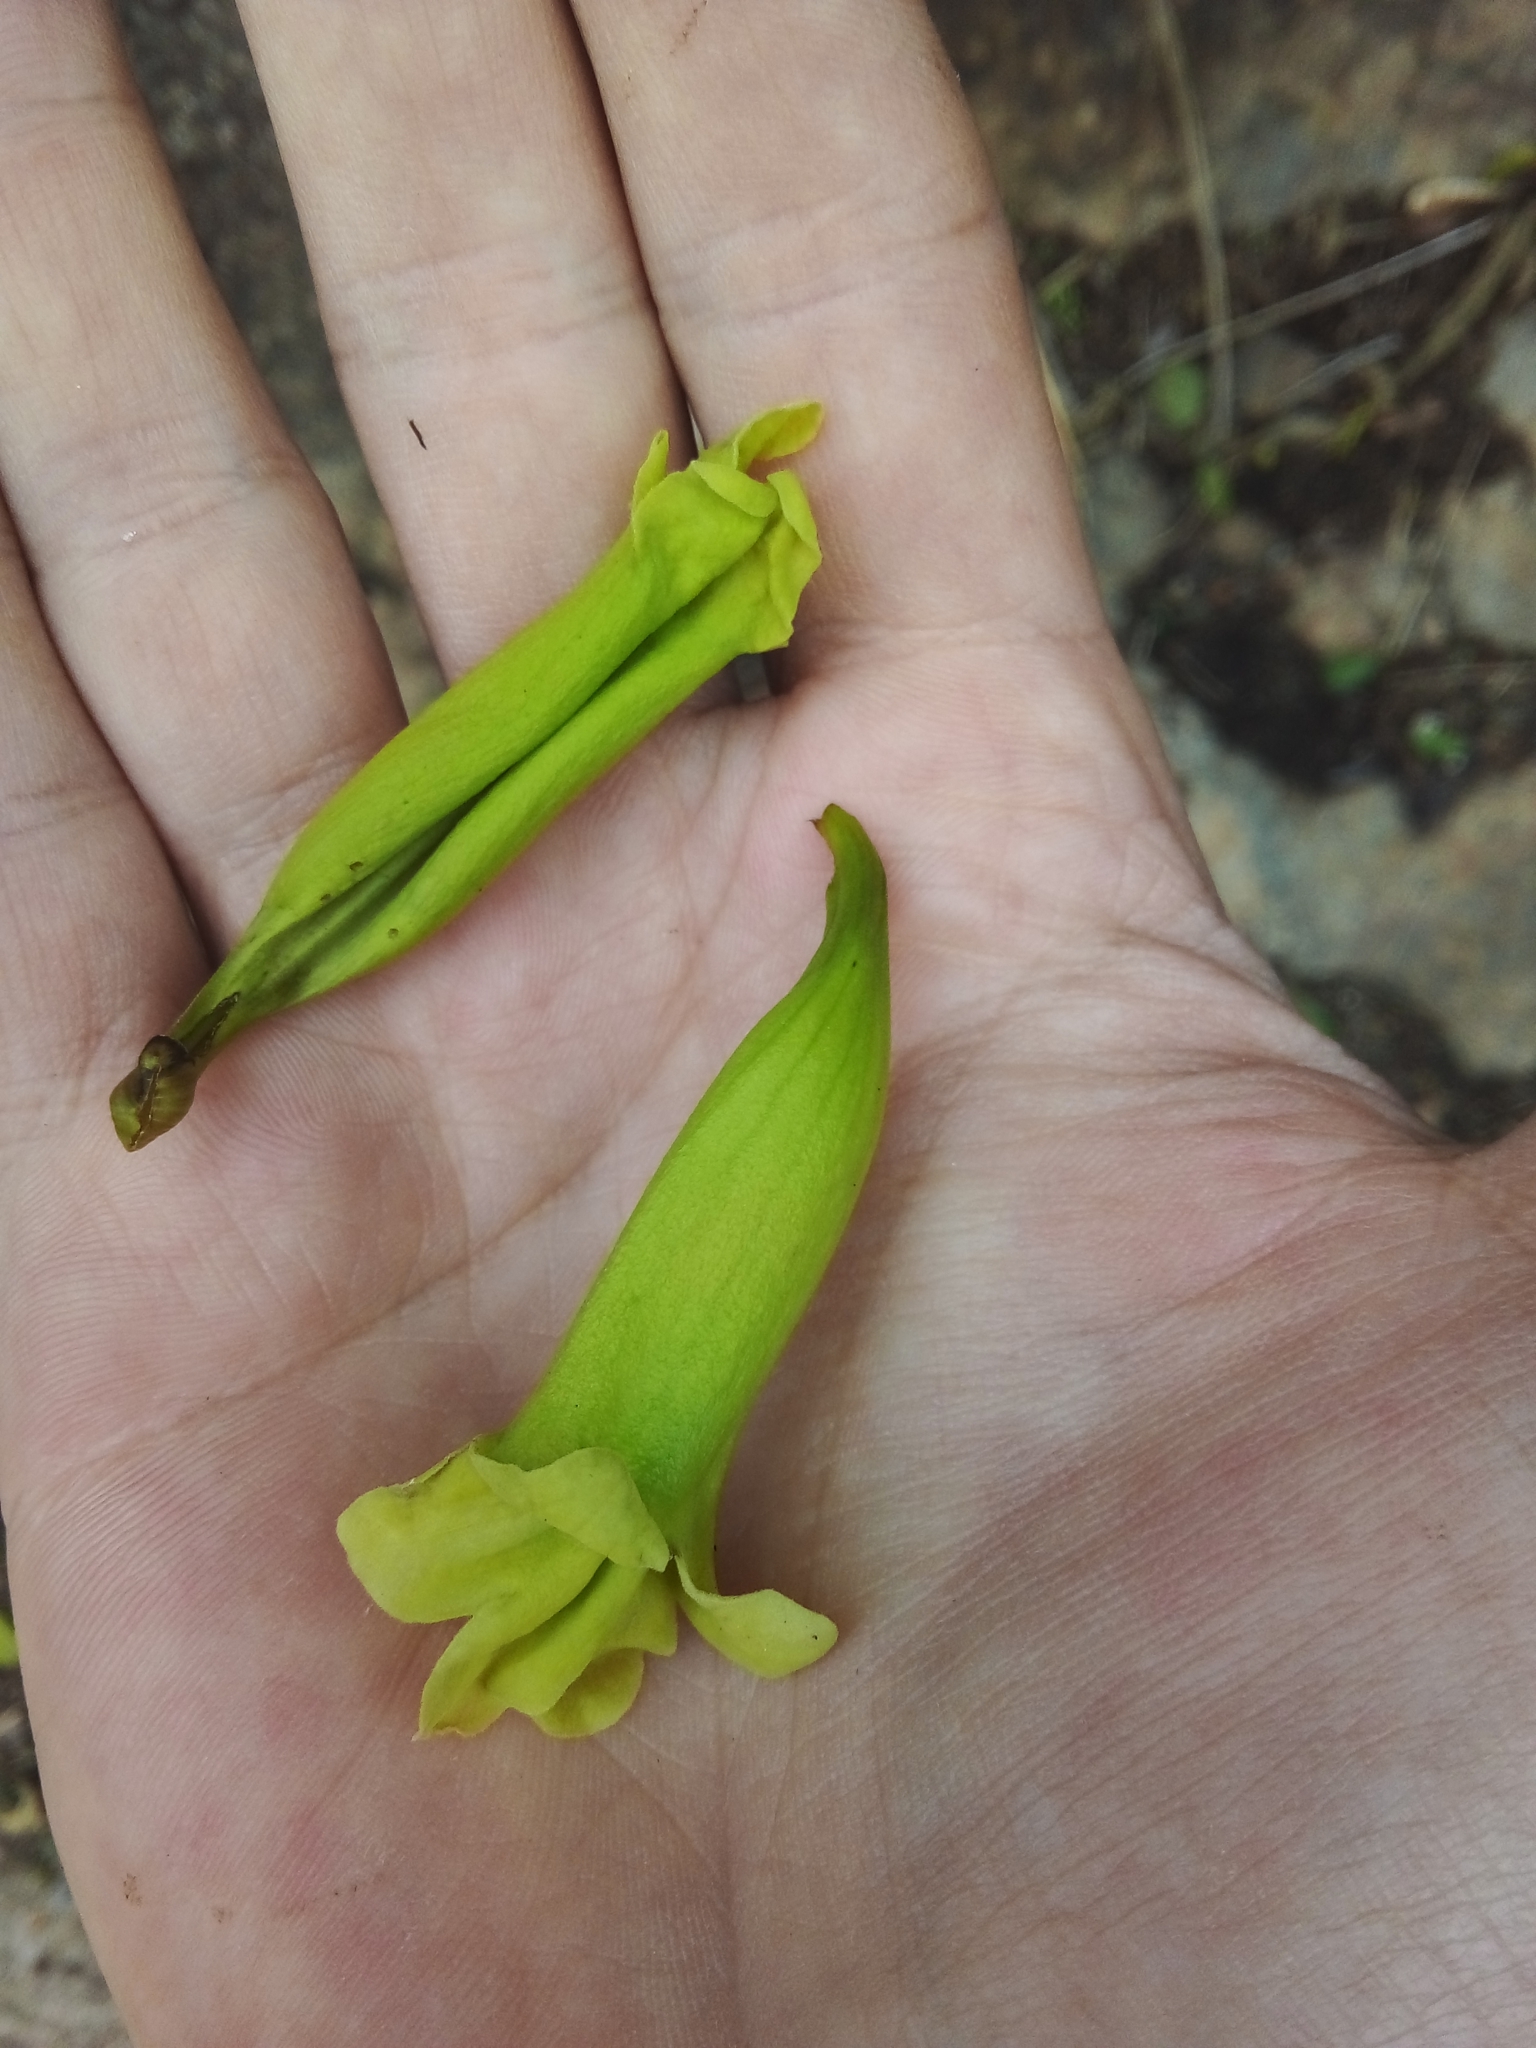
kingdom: Plantae
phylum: Tracheophyta
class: Magnoliopsida
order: Lamiales
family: Bignoniaceae
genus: Cybistax
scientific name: Cybistax antisyphilitica
